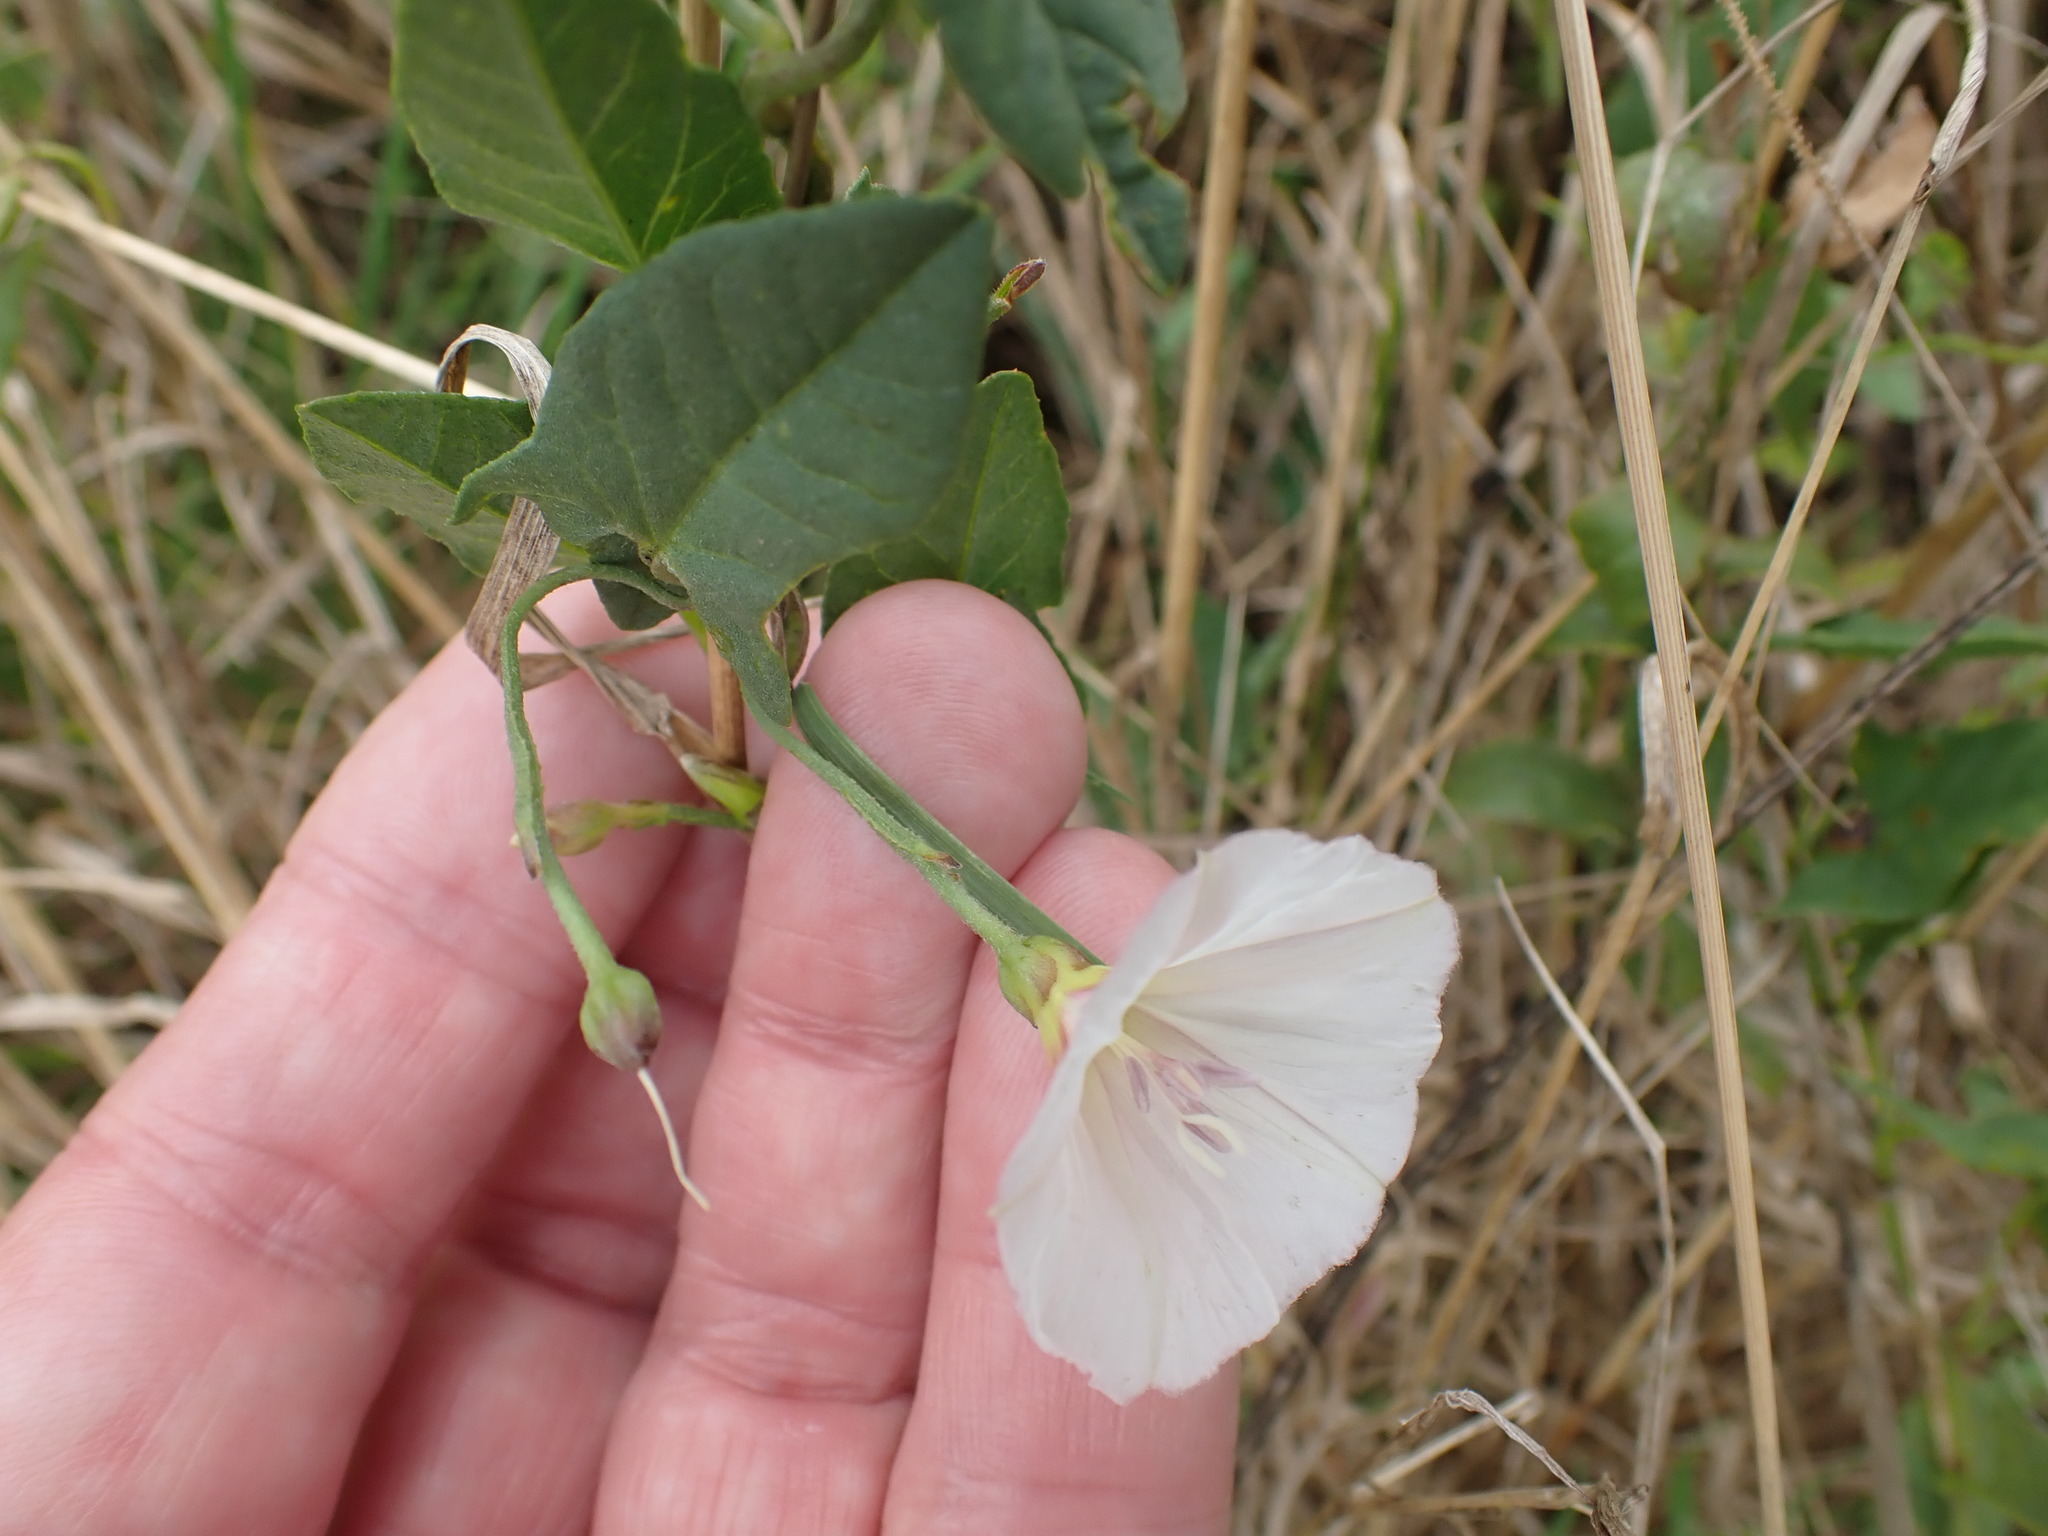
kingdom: Plantae
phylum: Tracheophyta
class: Magnoliopsida
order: Solanales
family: Convolvulaceae
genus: Convolvulus
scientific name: Convolvulus arvensis
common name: Field bindweed
